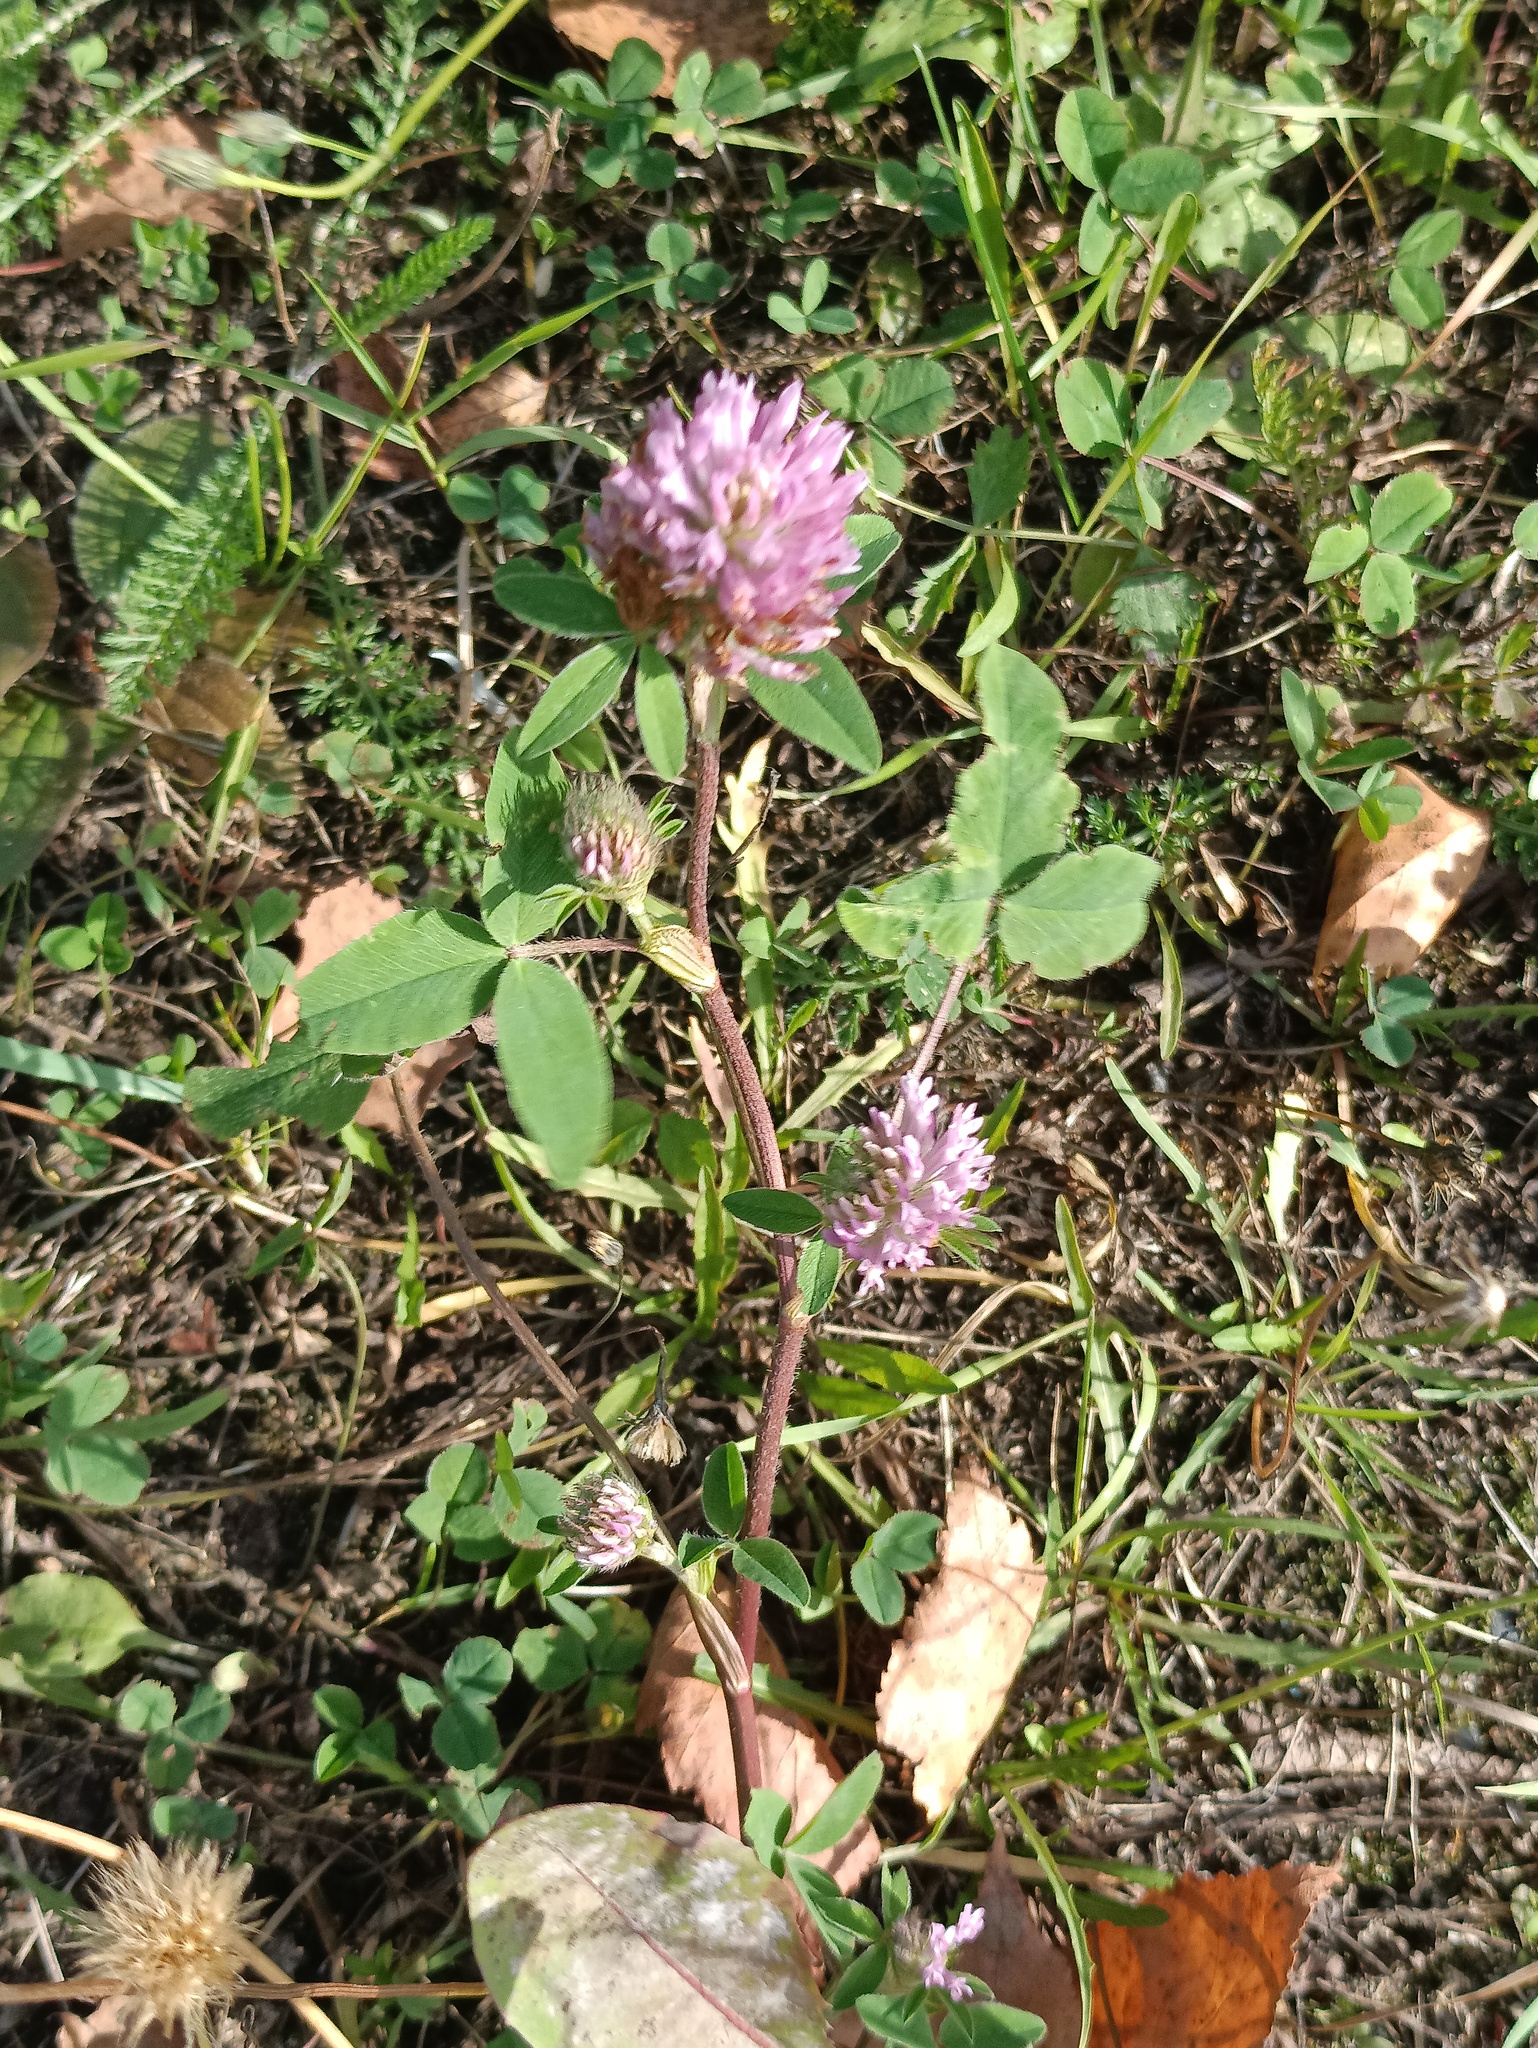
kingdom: Plantae
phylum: Tracheophyta
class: Magnoliopsida
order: Fabales
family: Fabaceae
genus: Trifolium
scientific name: Trifolium pratense
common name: Red clover
